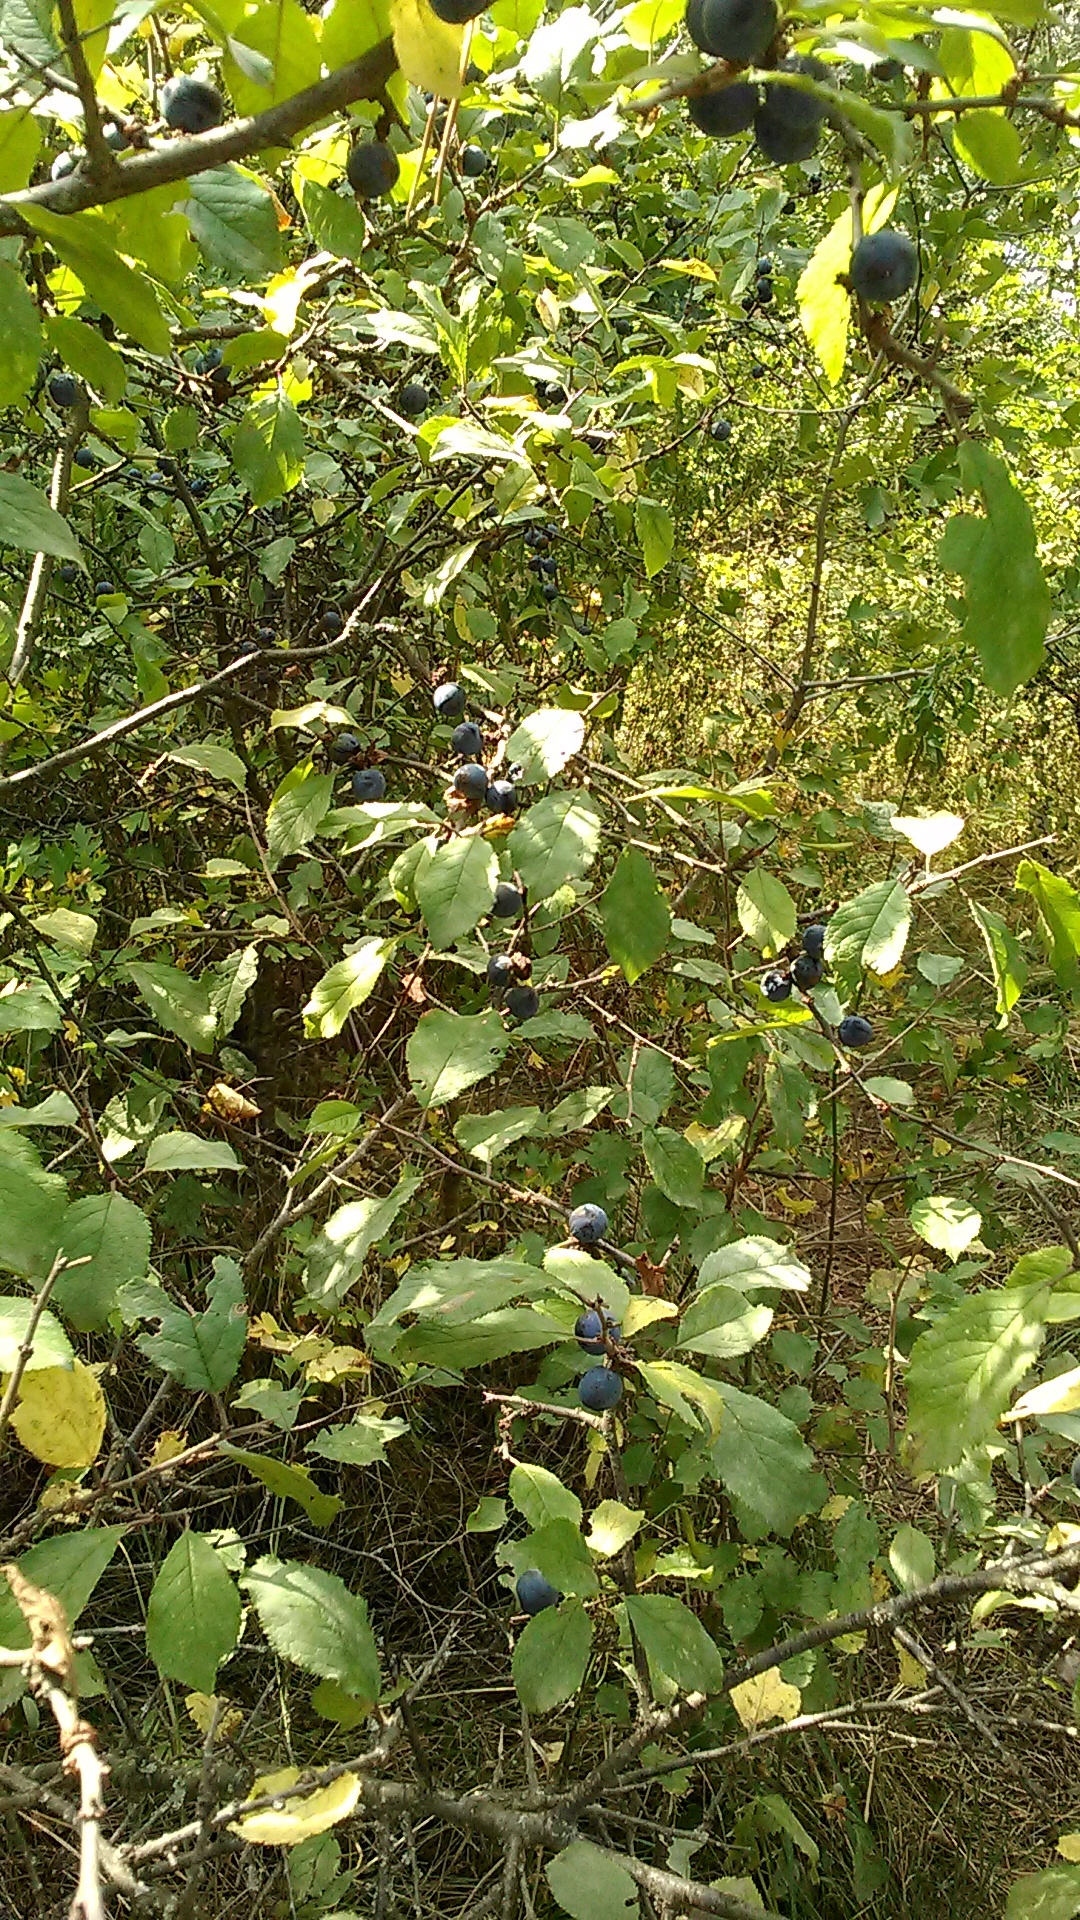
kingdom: Plantae
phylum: Tracheophyta
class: Magnoliopsida
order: Rosales
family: Rosaceae
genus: Prunus
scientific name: Prunus spinosa
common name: Blackthorn
